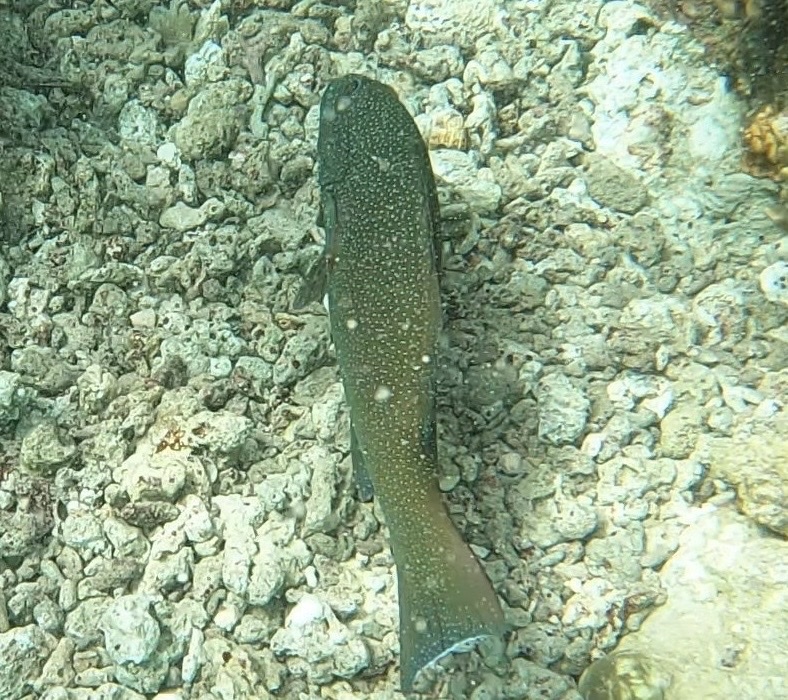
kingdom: Animalia
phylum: Chordata
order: Perciformes
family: Serranidae
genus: Plectropomus
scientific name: Plectropomus leopardus
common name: Coral trout
